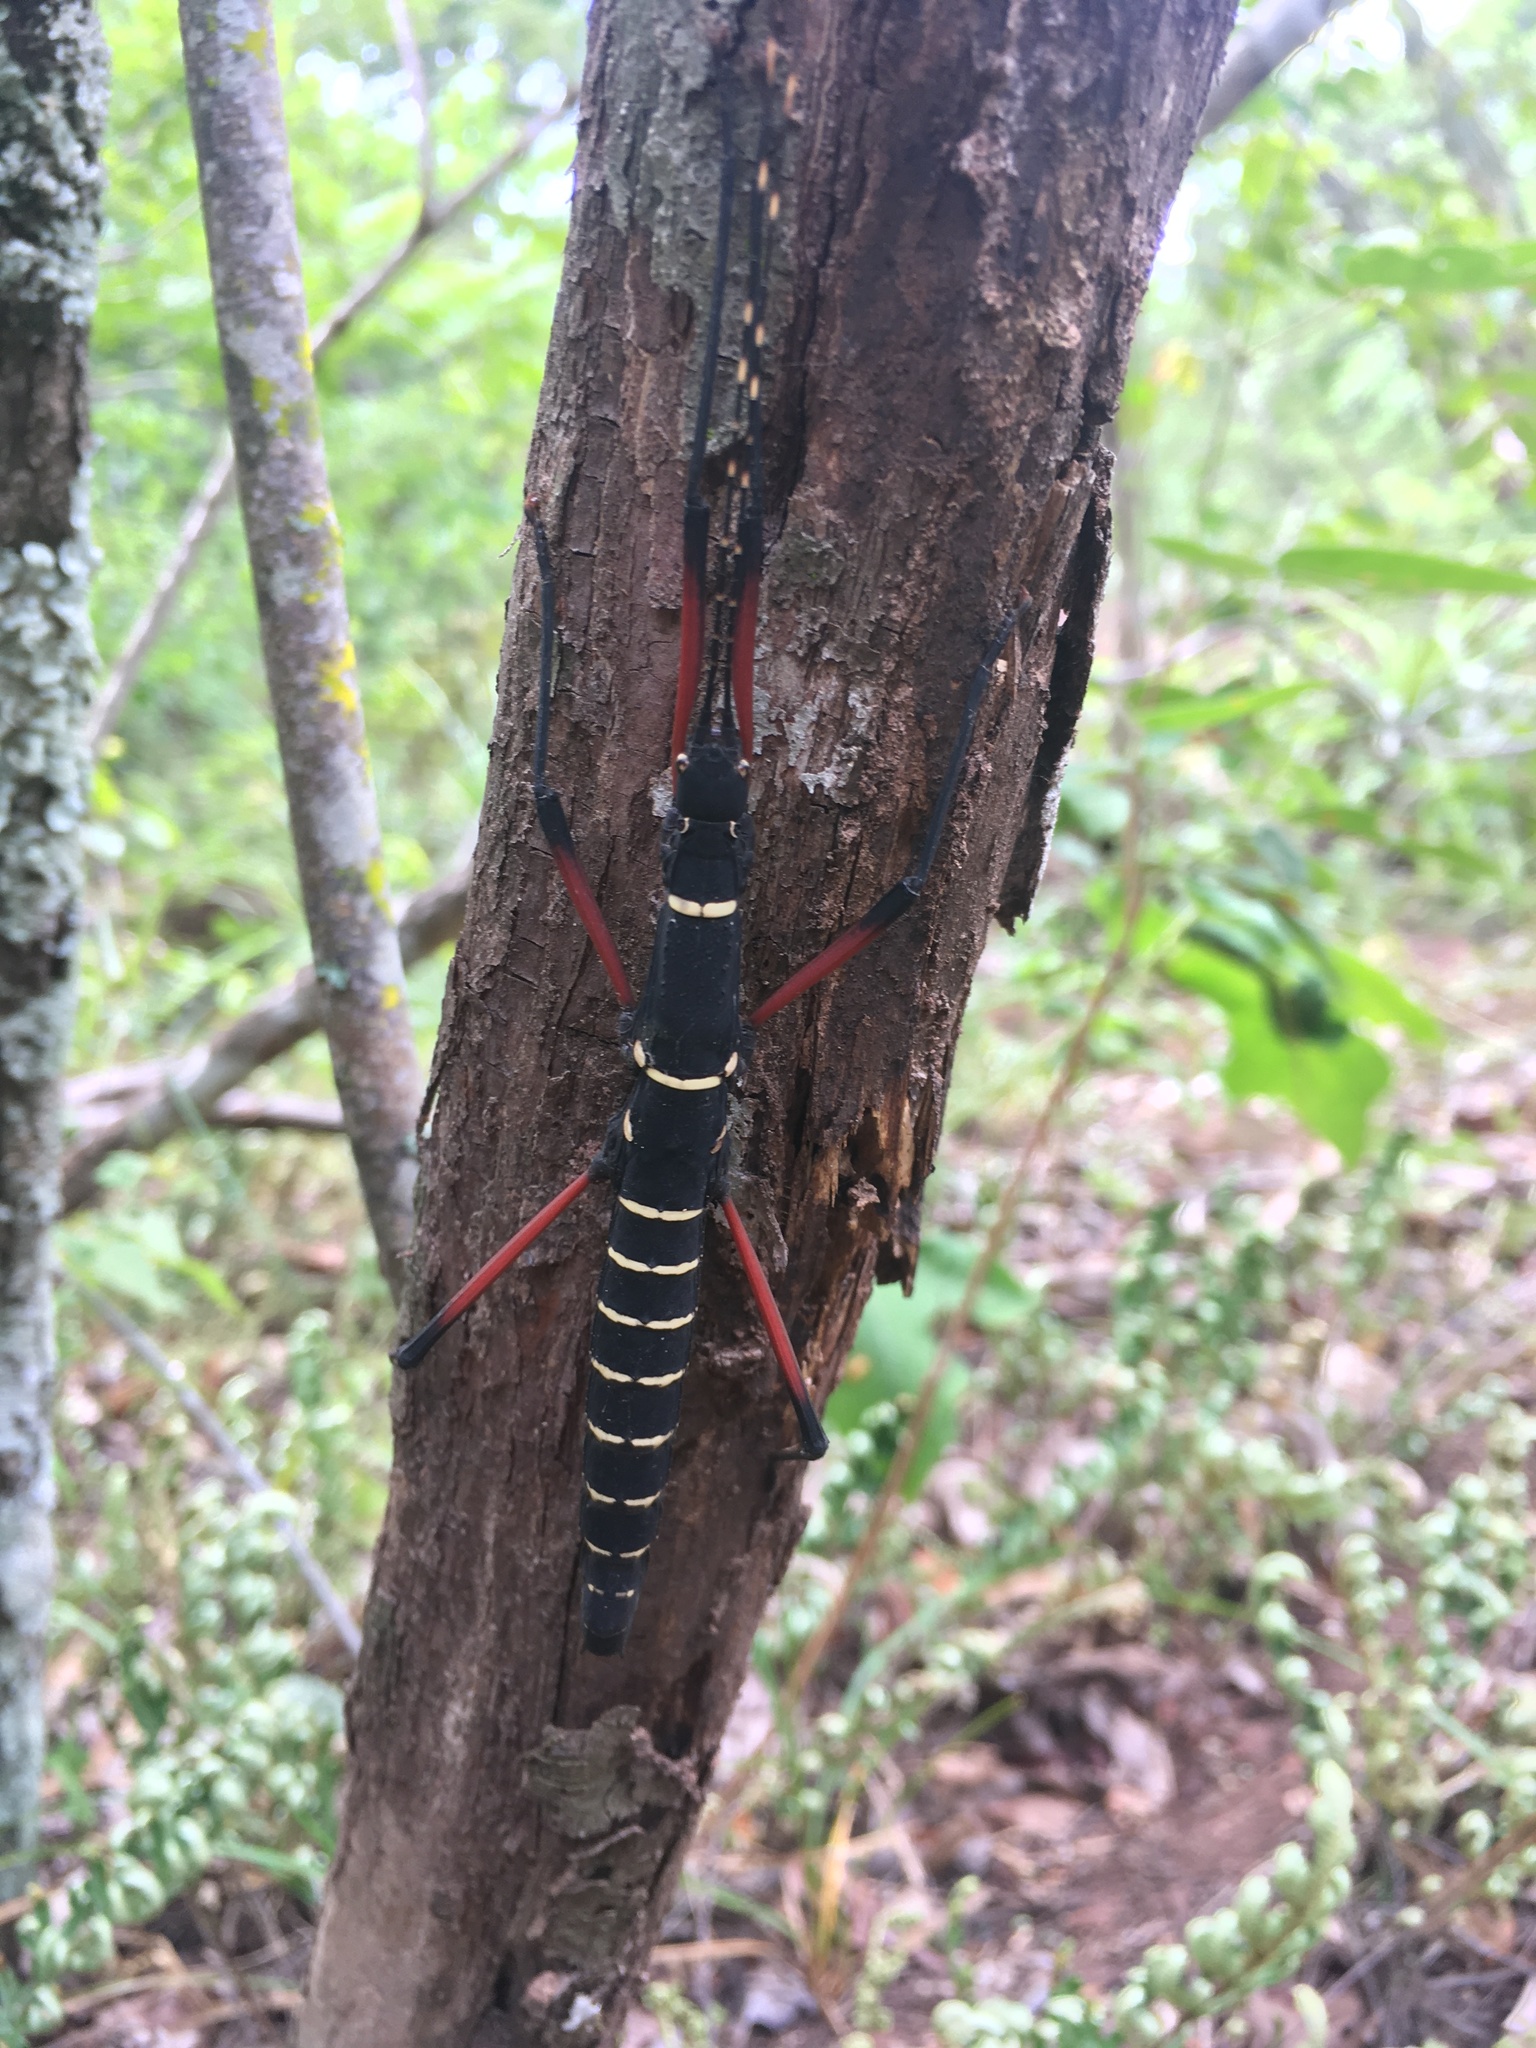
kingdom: Animalia
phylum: Arthropoda
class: Insecta
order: Phasmida
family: Pseudophasmatidae
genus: Urucumania
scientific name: Urucumania borellii
